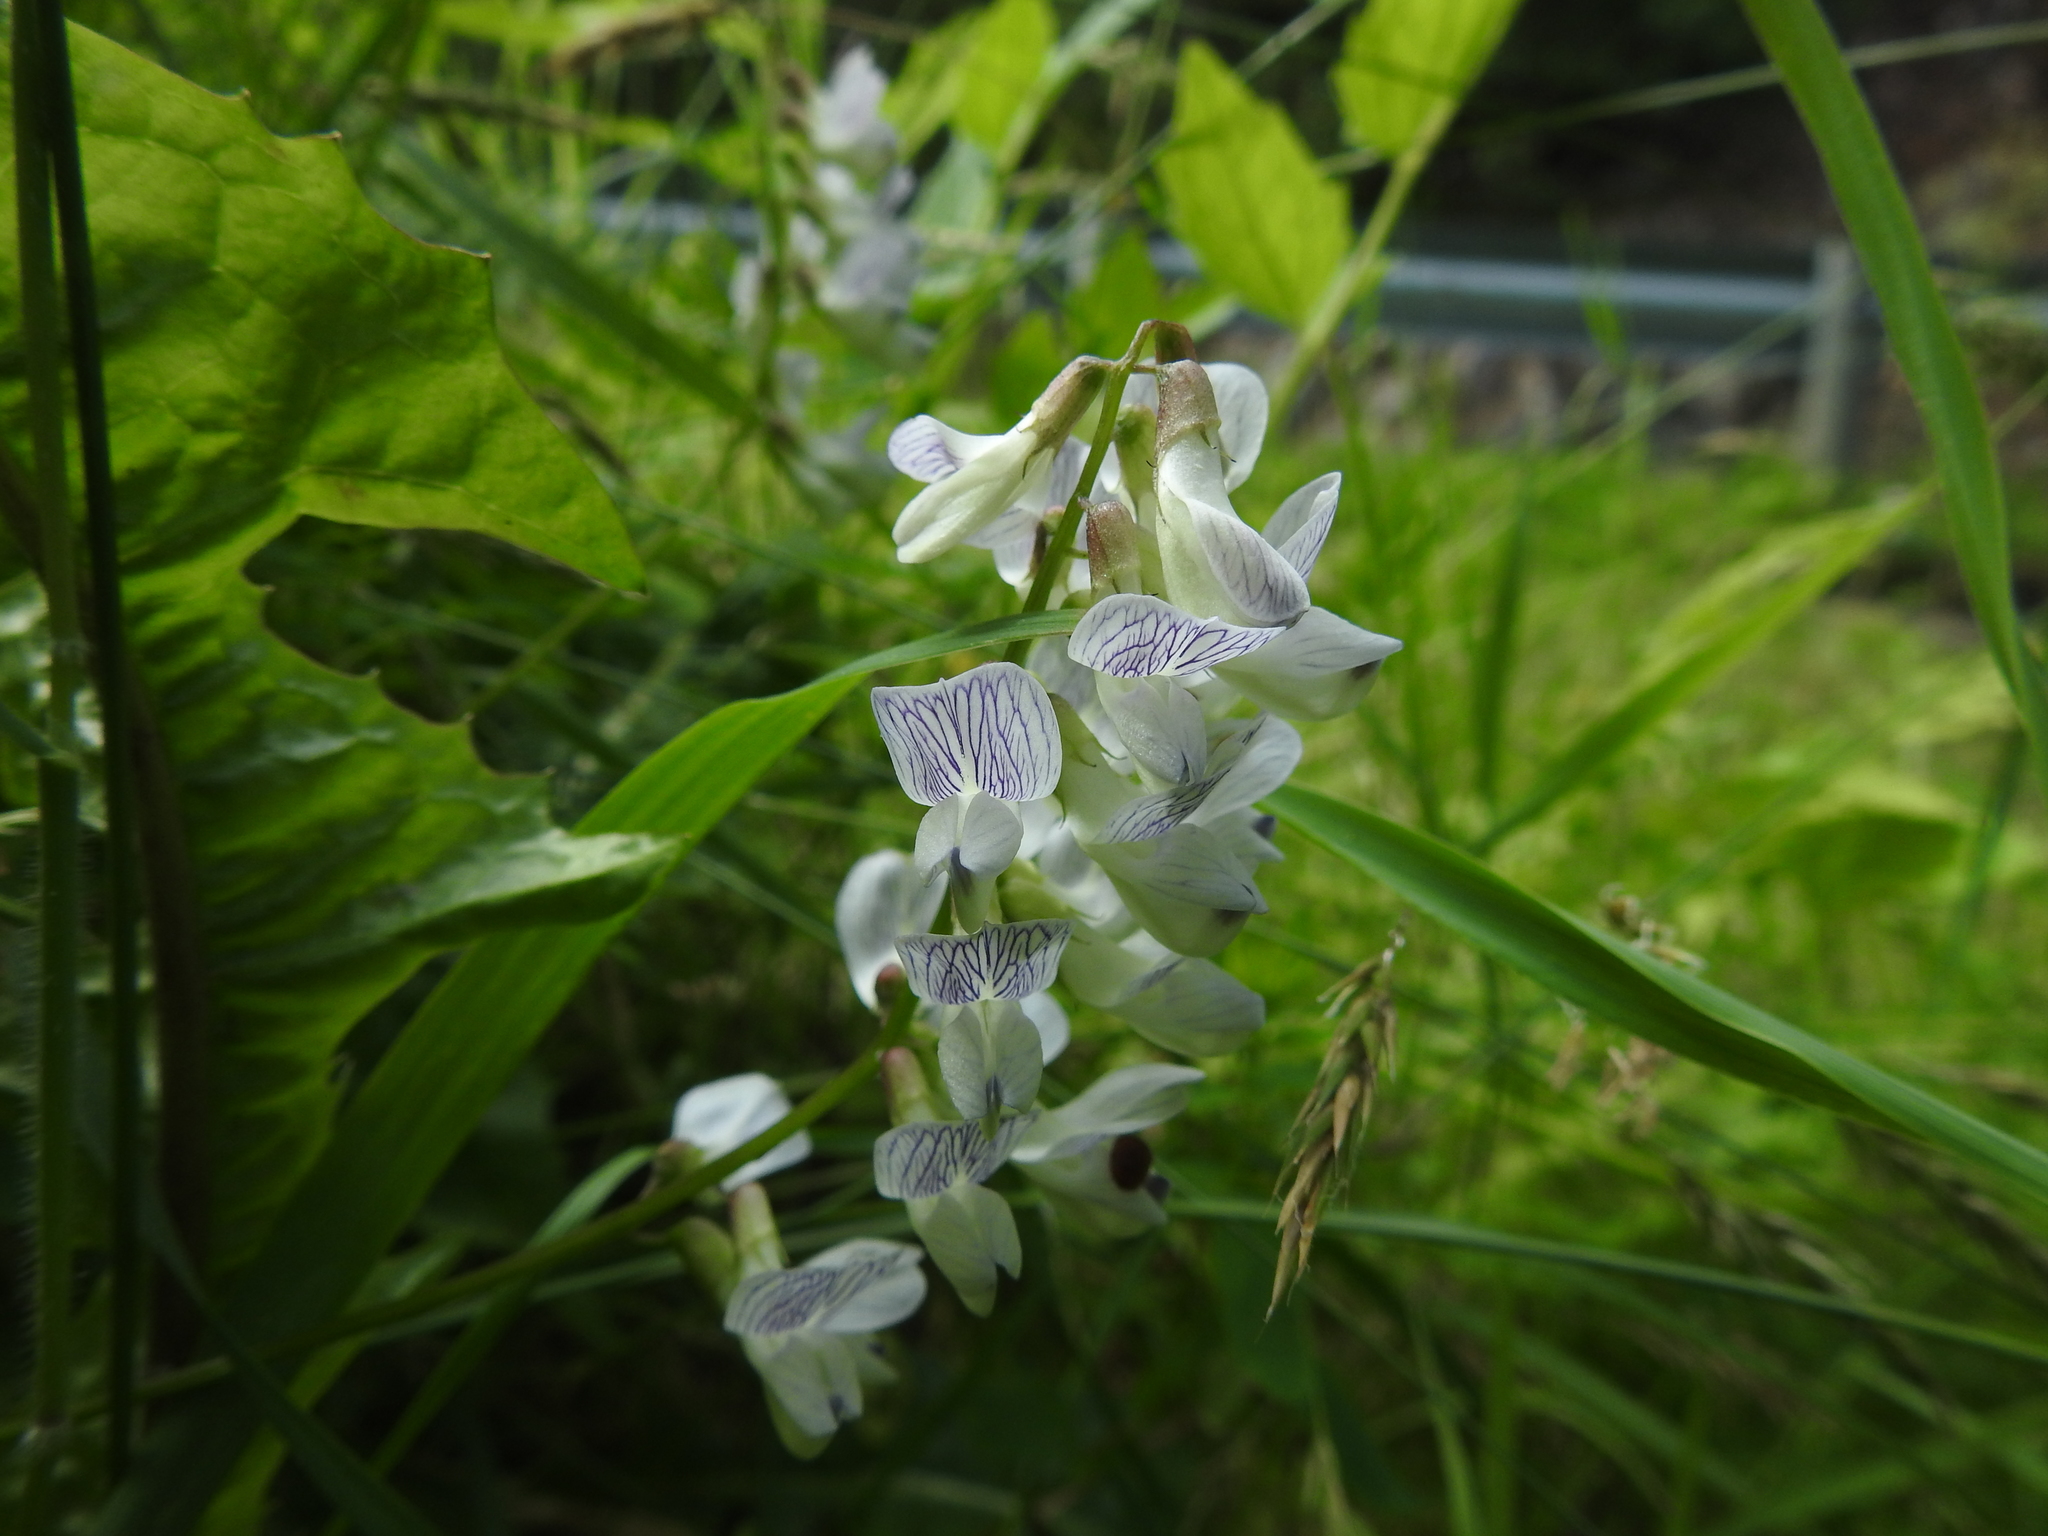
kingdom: Plantae
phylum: Tracheophyta
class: Magnoliopsida
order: Fabales
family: Fabaceae
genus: Vicia
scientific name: Vicia sylvatica
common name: Wood vetch
